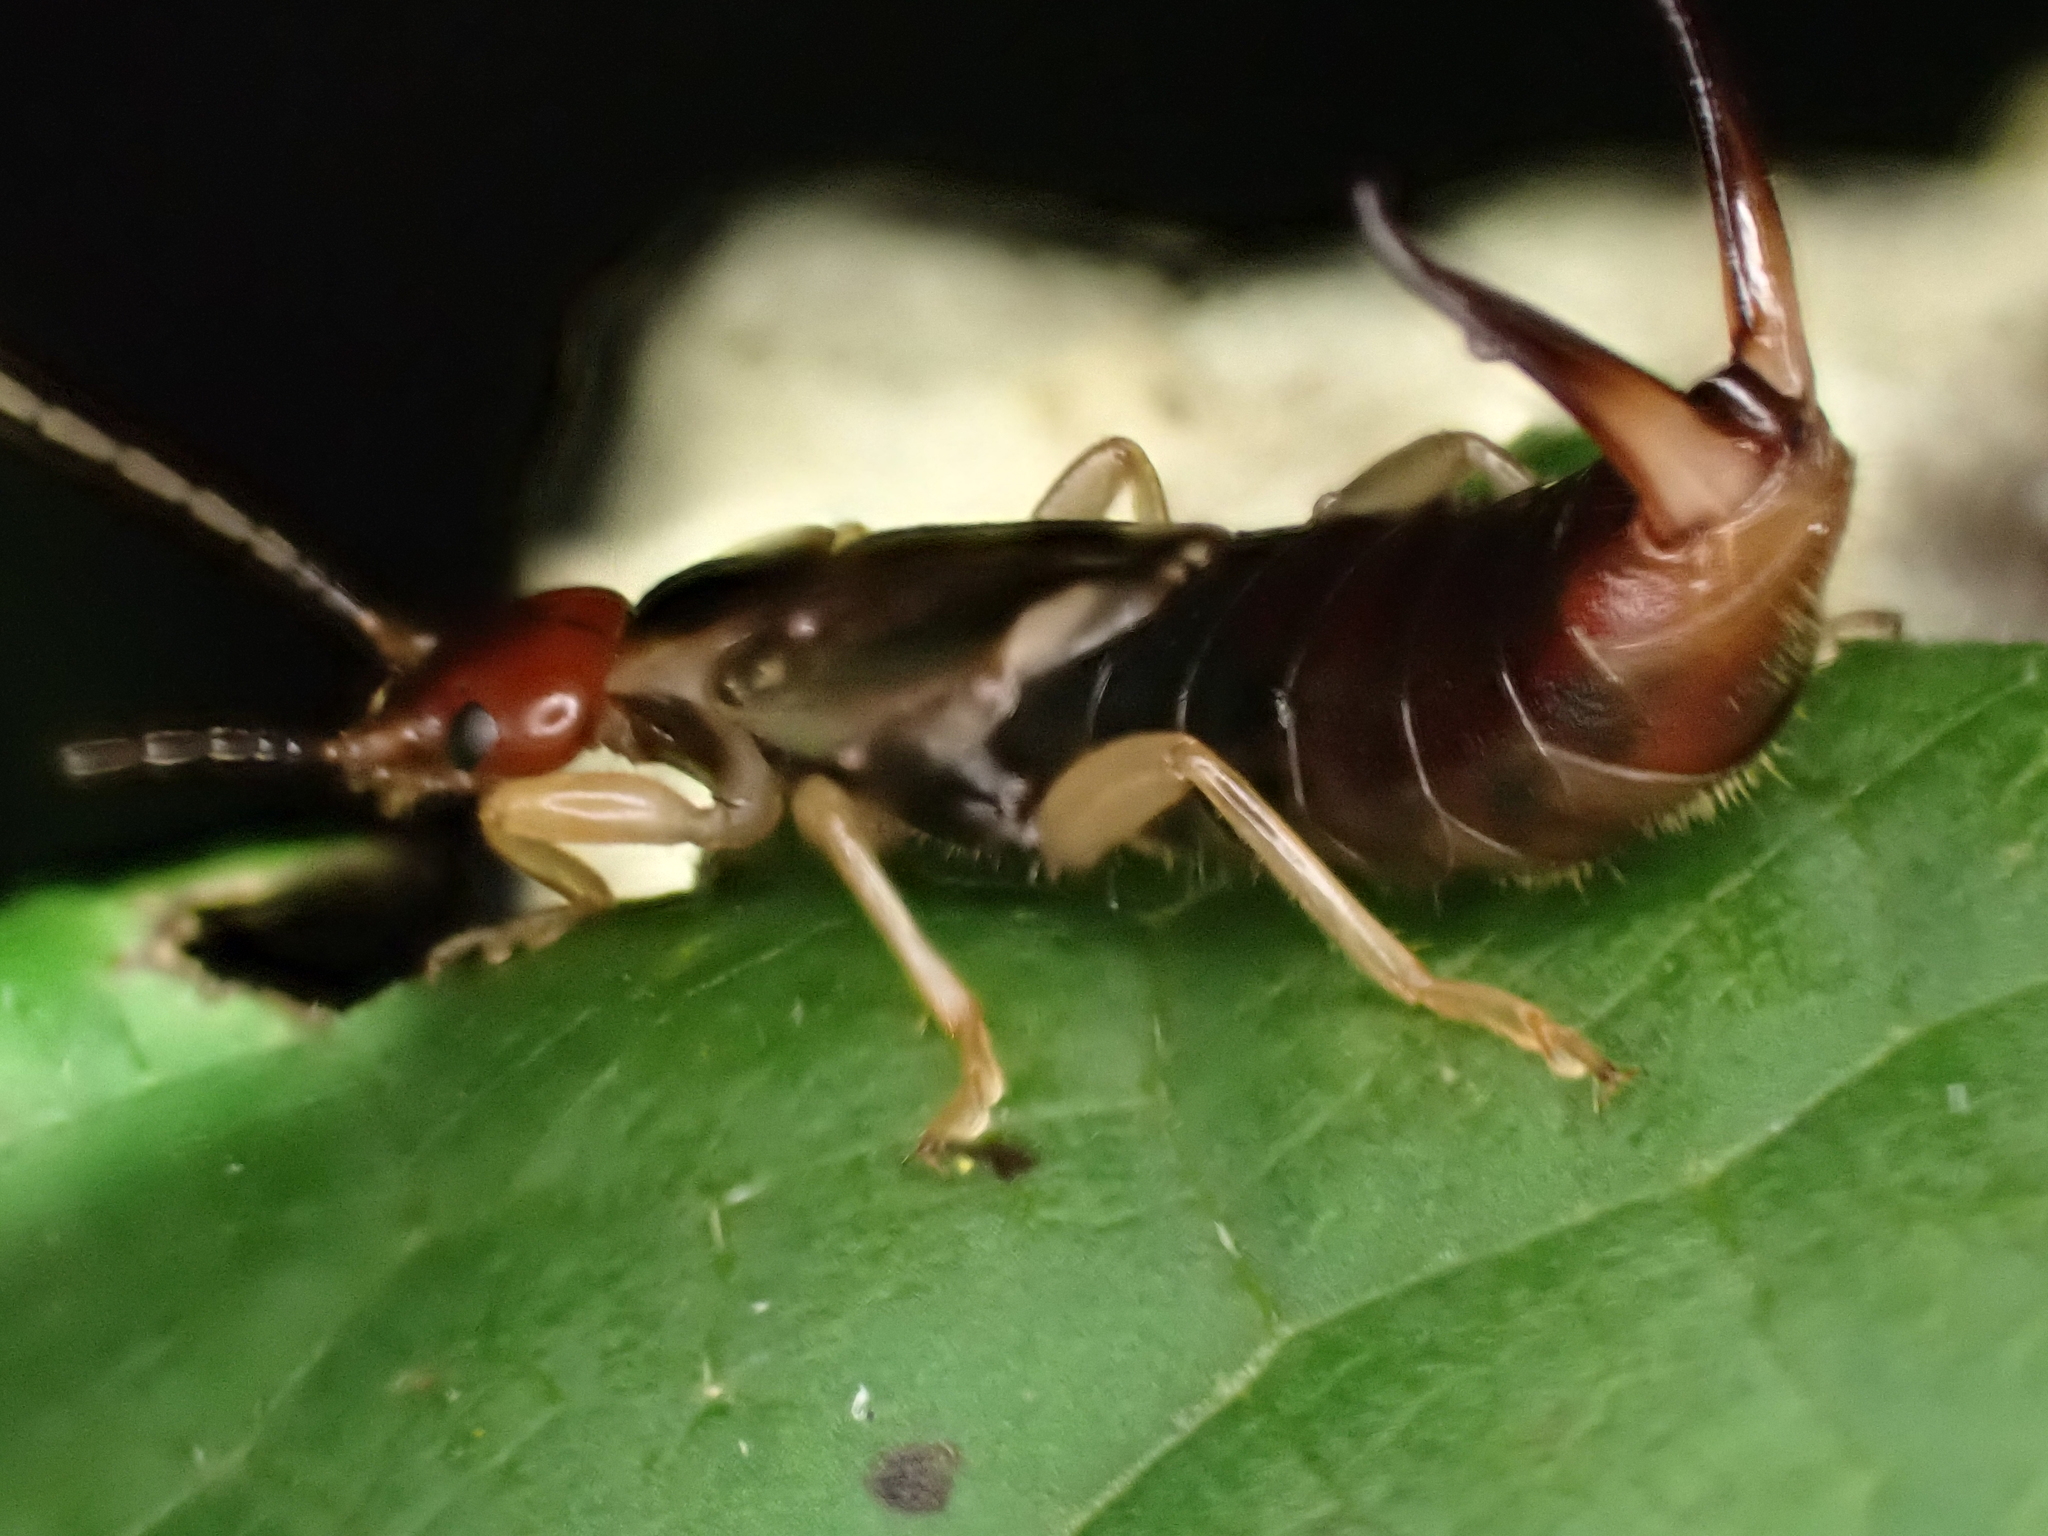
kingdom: Animalia
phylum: Arthropoda
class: Insecta
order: Dermaptera
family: Forficulidae
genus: Forficula
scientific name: Forficula
